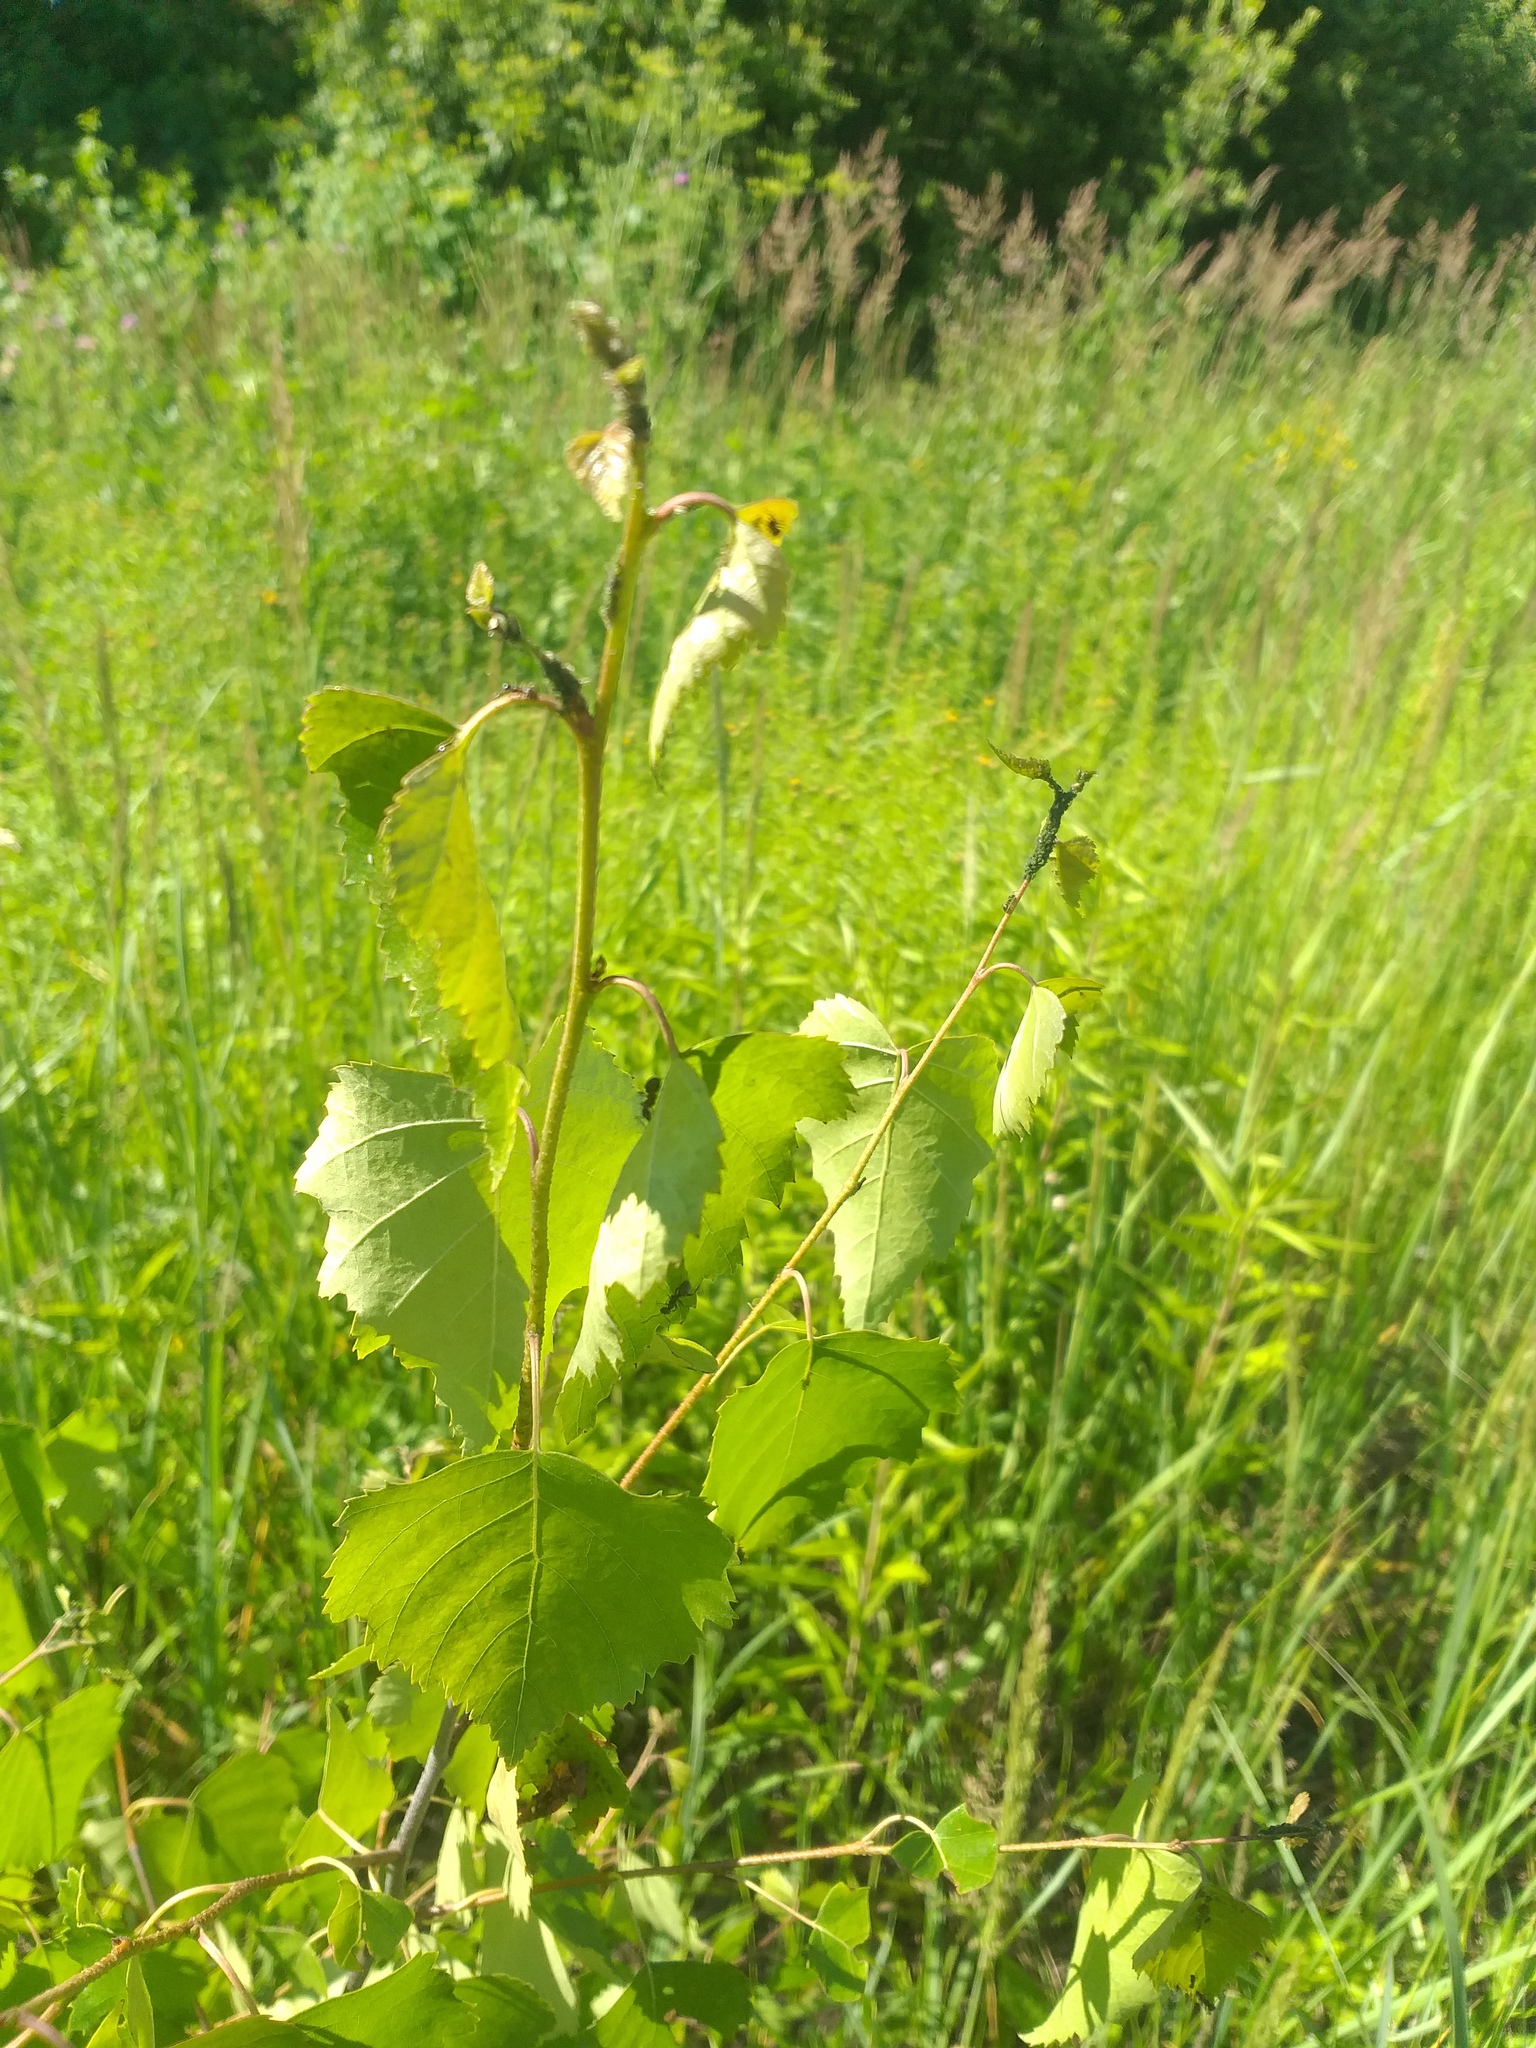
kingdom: Plantae
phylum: Tracheophyta
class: Magnoliopsida
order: Fagales
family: Betulaceae
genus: Betula
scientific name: Betula pendula
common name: Silver birch
